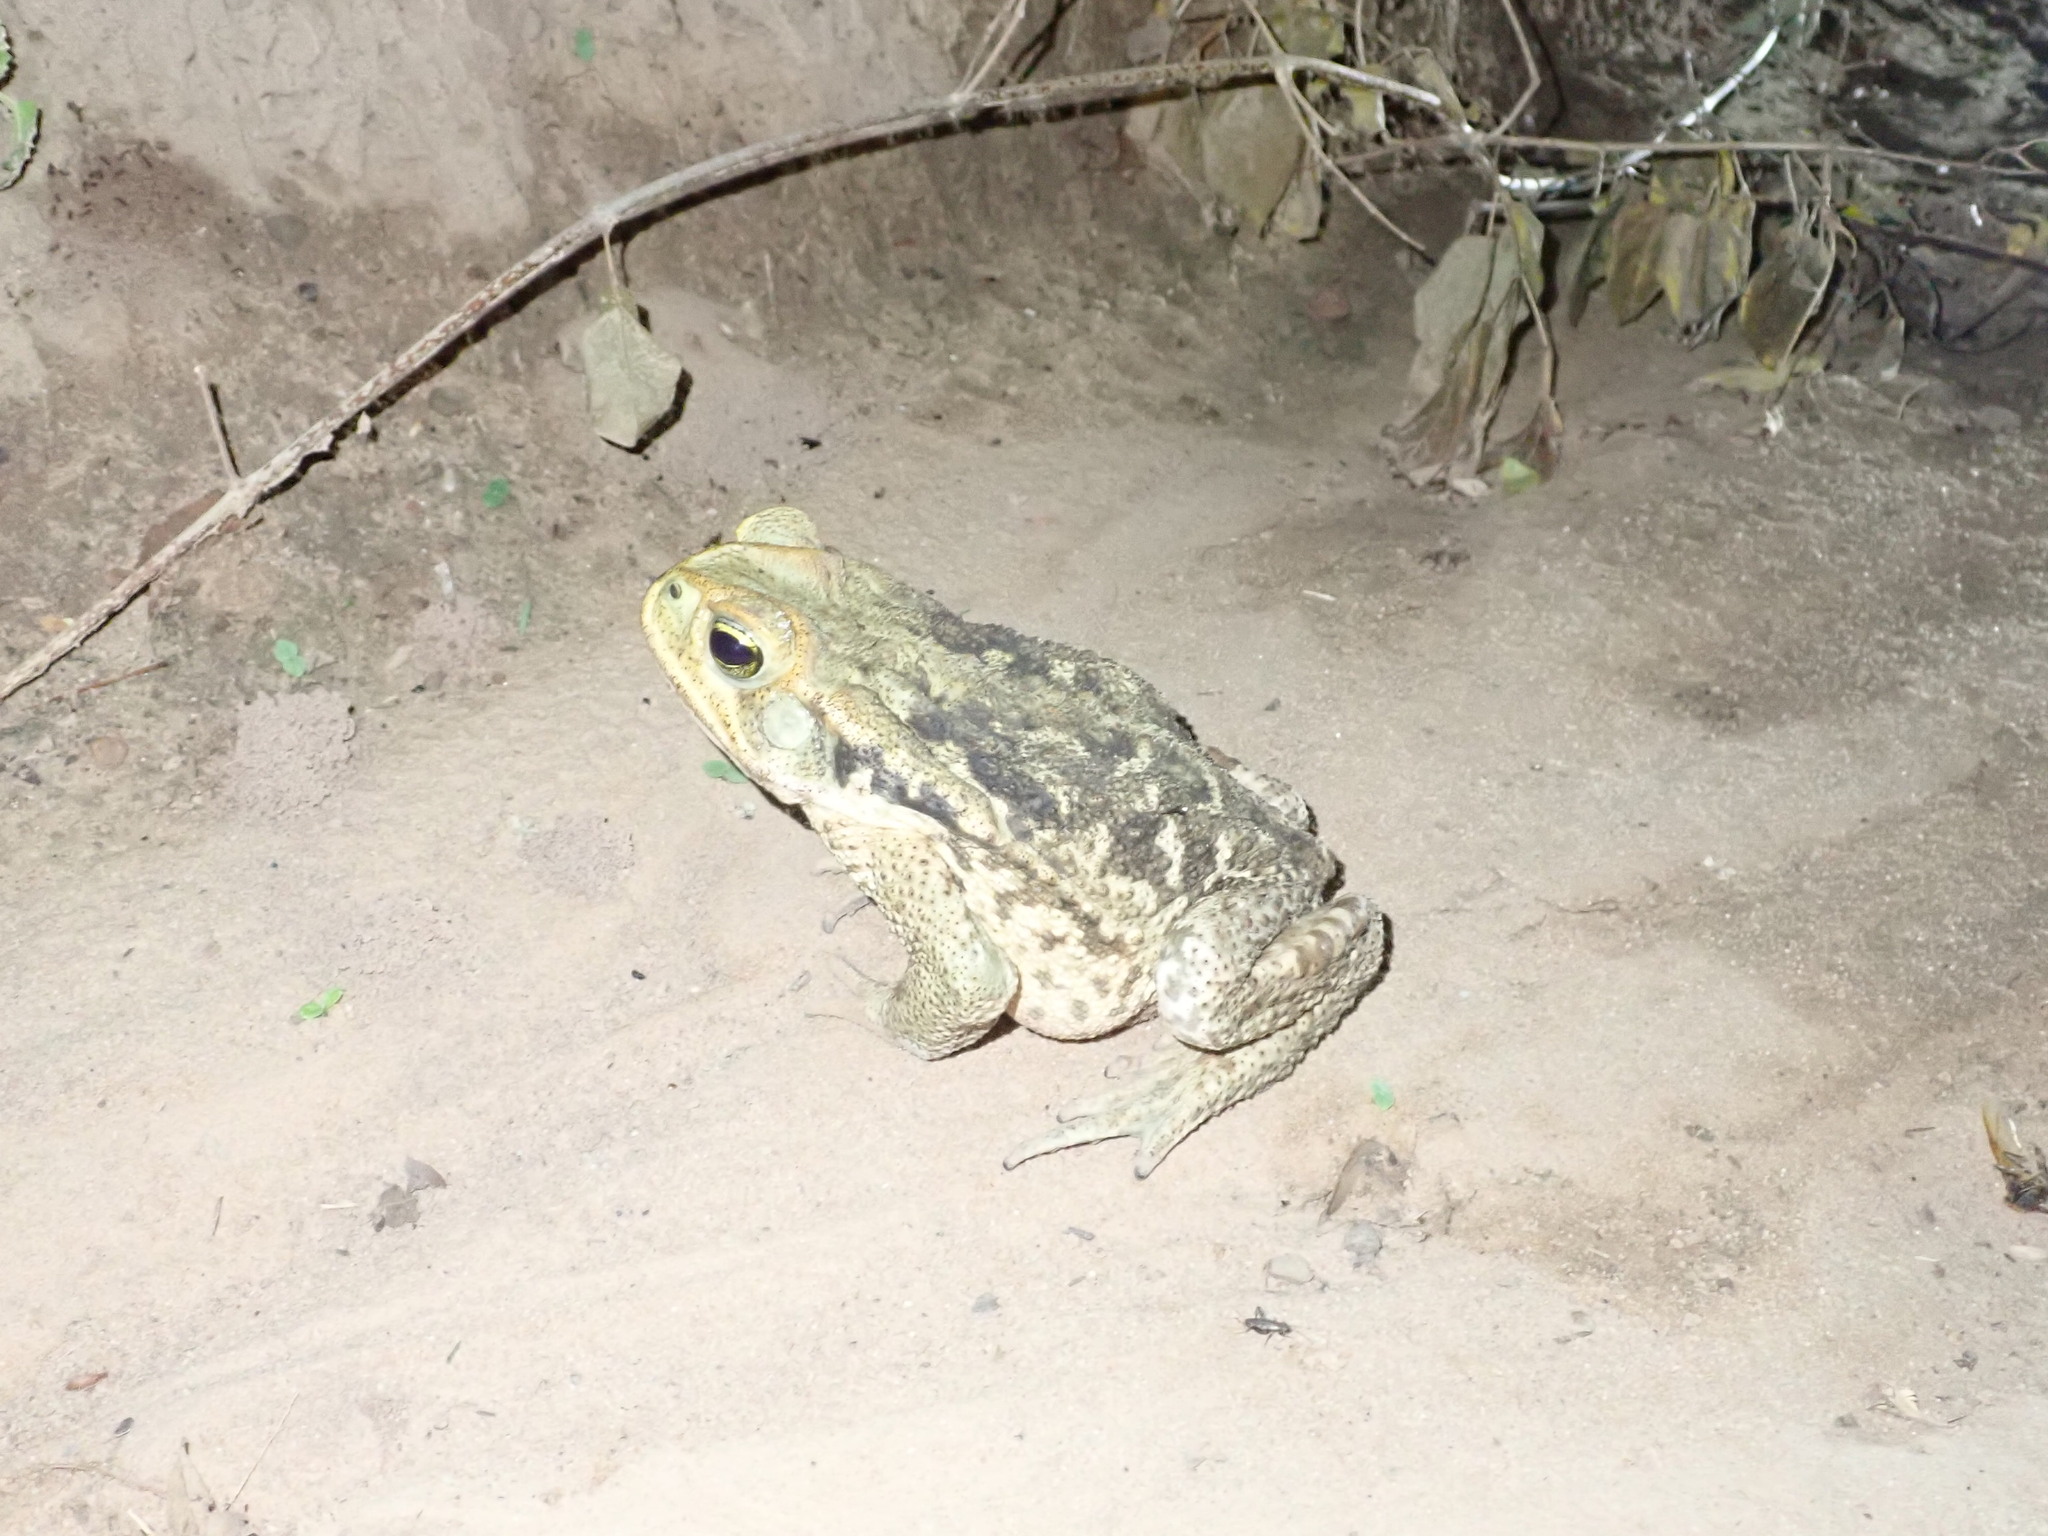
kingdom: Animalia
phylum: Chordata
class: Amphibia
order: Anura
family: Bufonidae
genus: Rhinella
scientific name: Rhinella poeppigii
